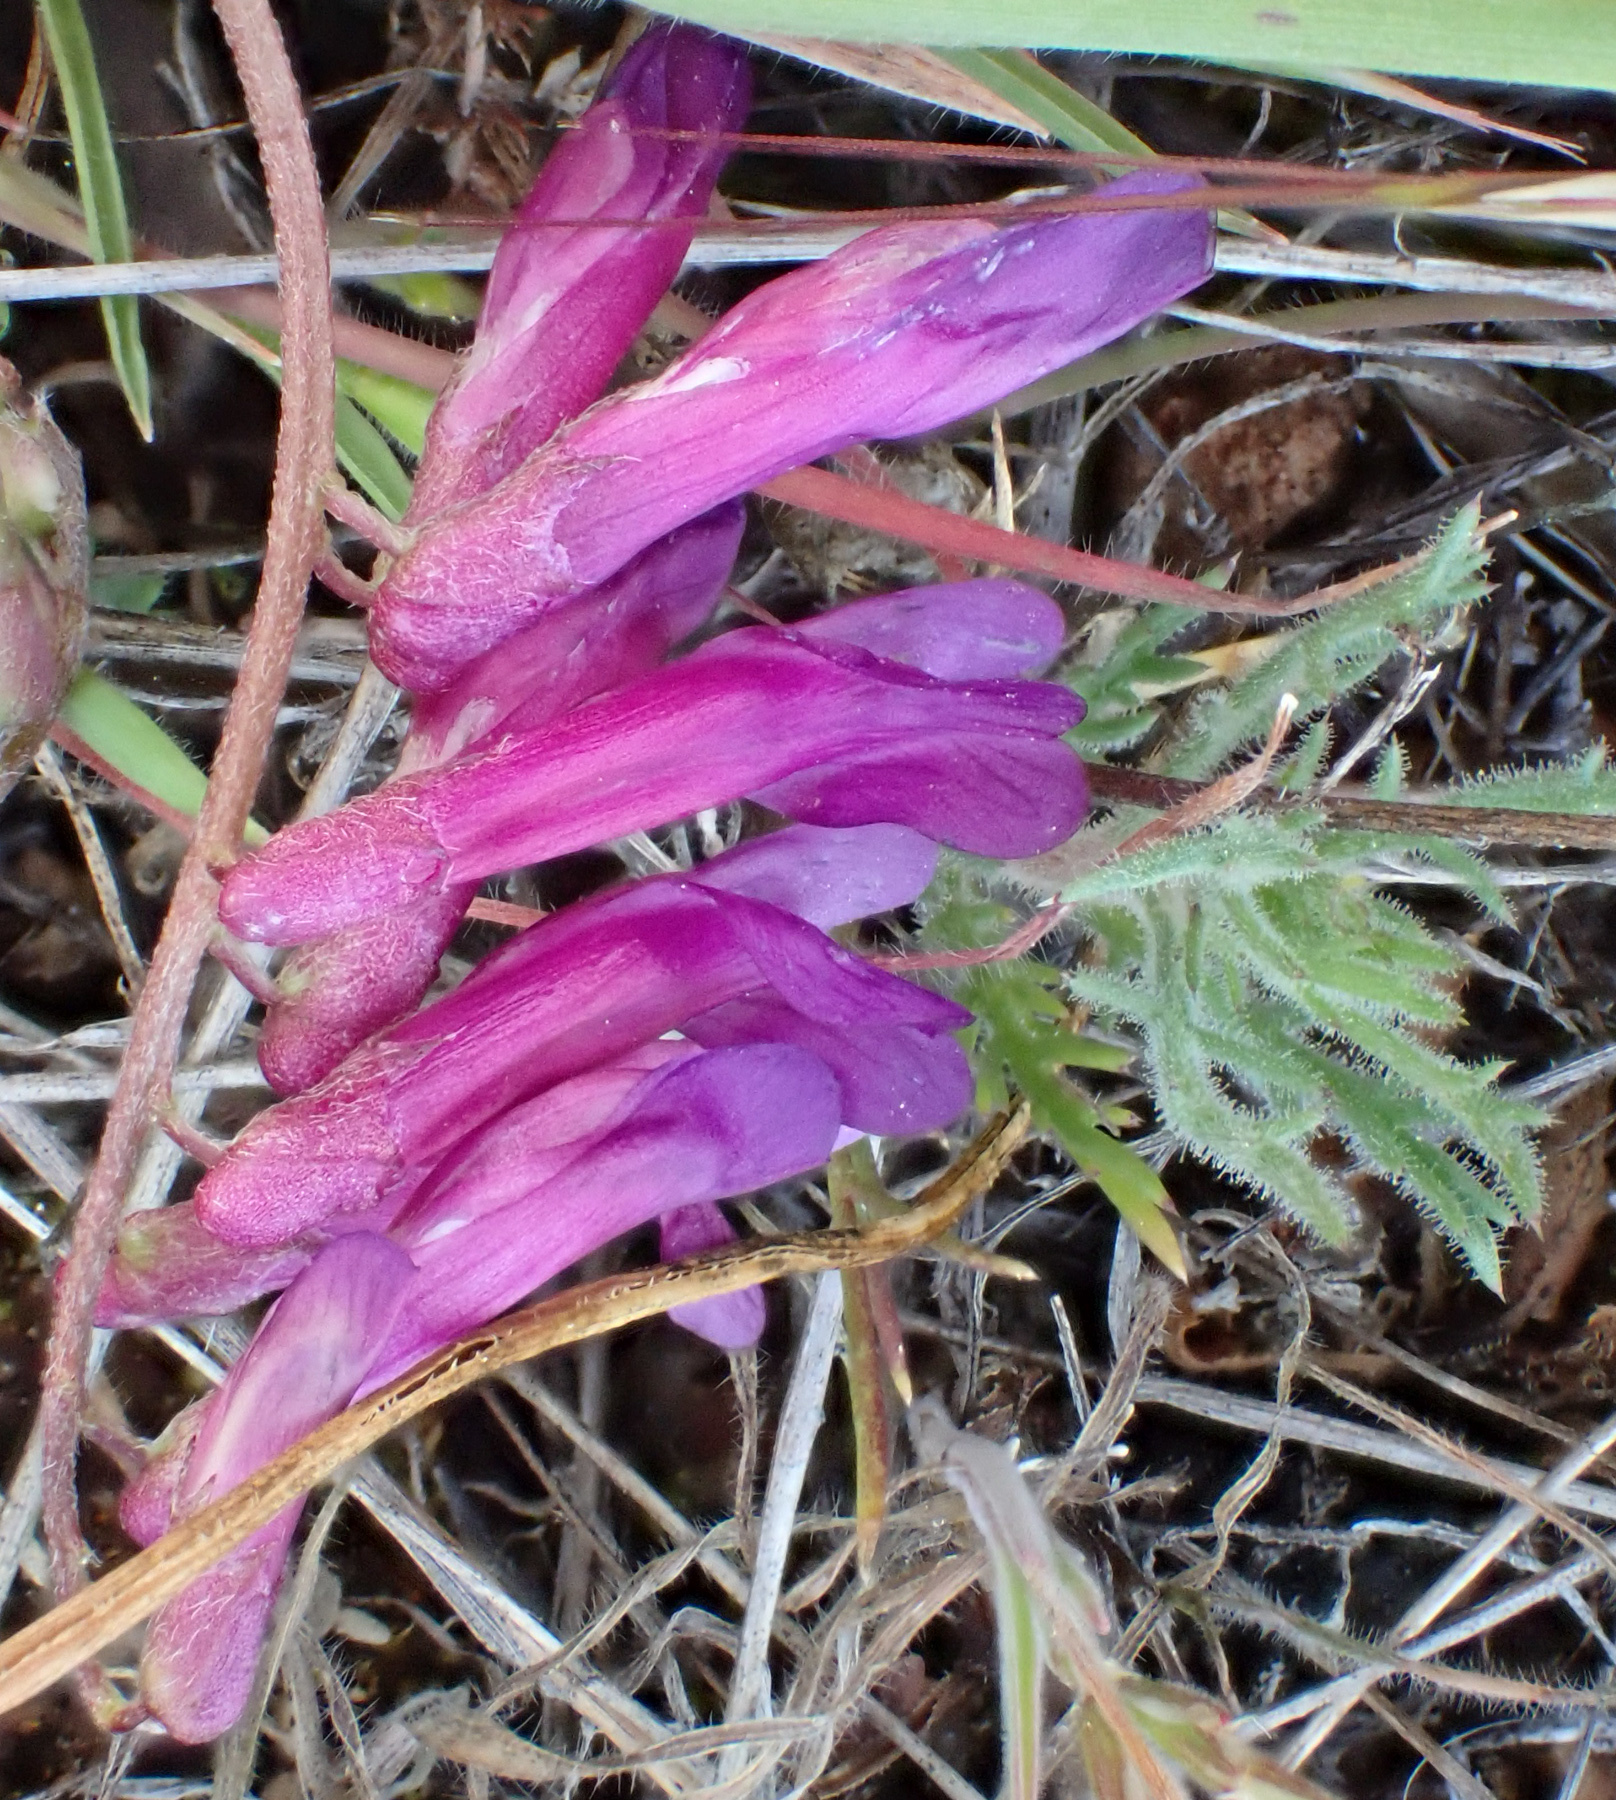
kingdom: Plantae
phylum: Tracheophyta
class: Magnoliopsida
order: Fabales
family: Fabaceae
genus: Vicia
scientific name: Vicia villosa
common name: Fodder vetch
